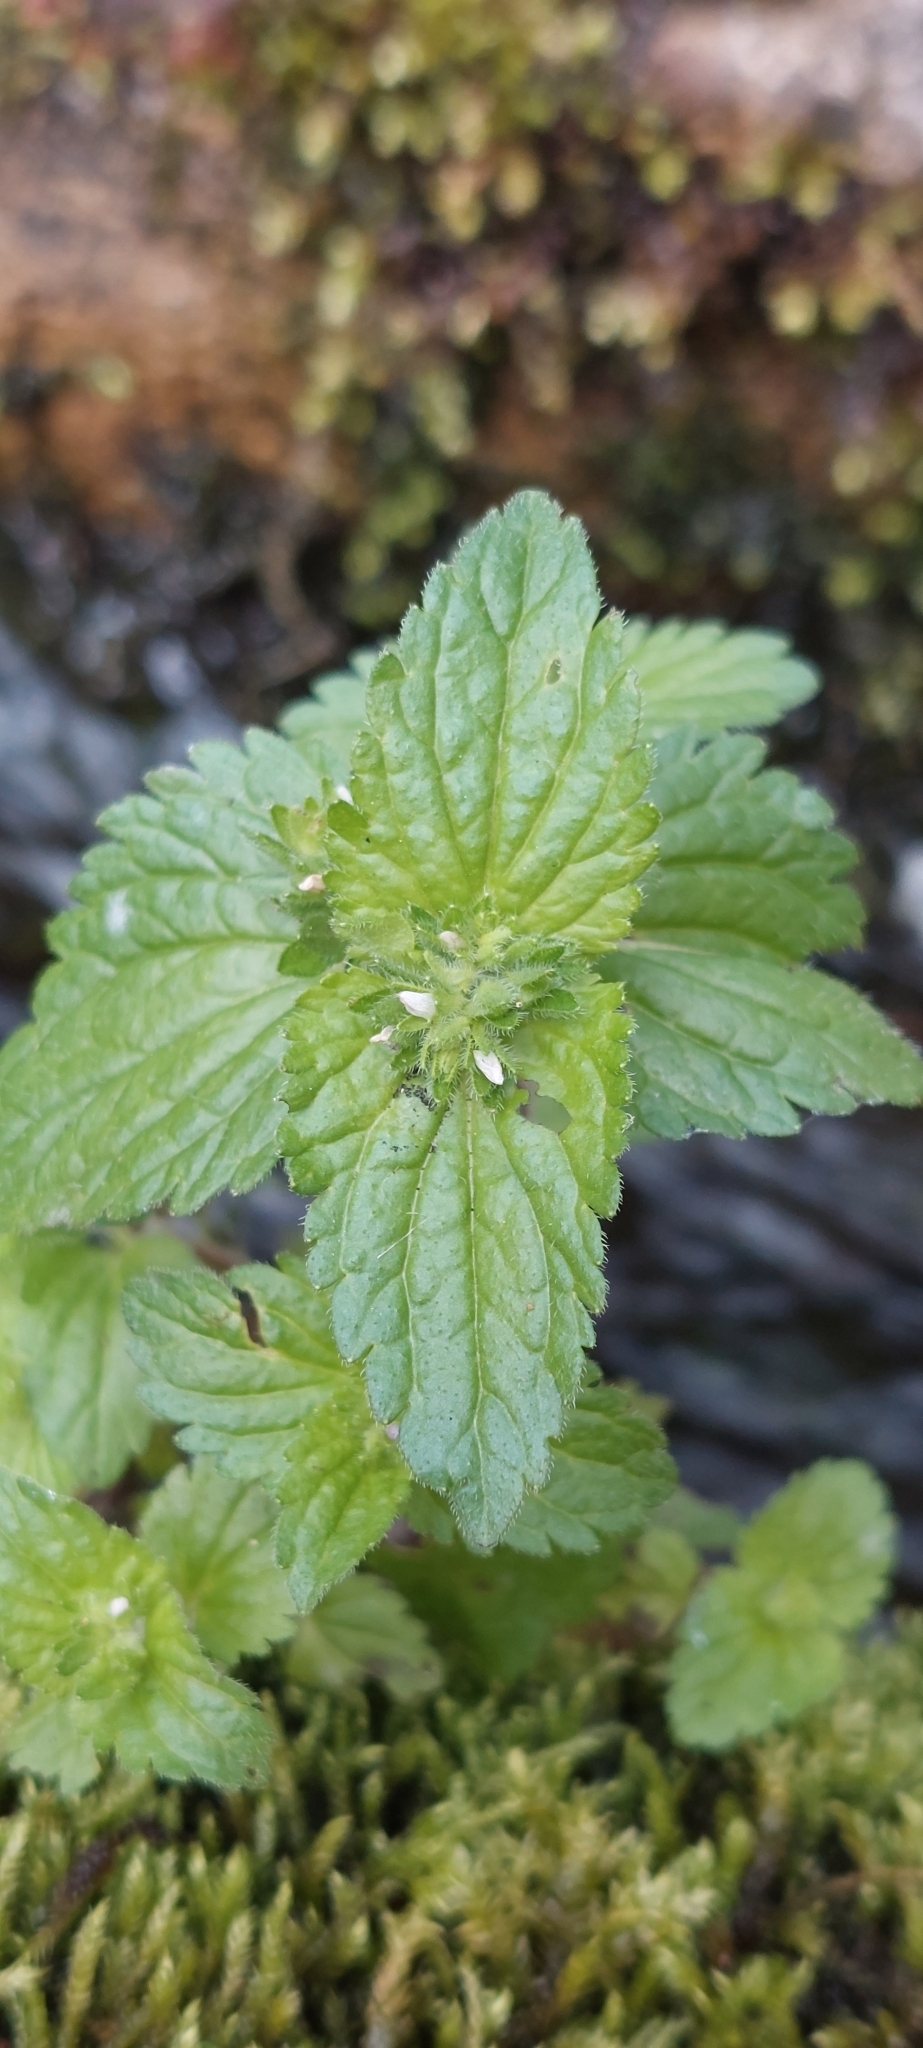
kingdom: Plantae
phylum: Tracheophyta
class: Magnoliopsida
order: Lamiales
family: Plantaginaceae
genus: Veronica
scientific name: Veronica javanica
